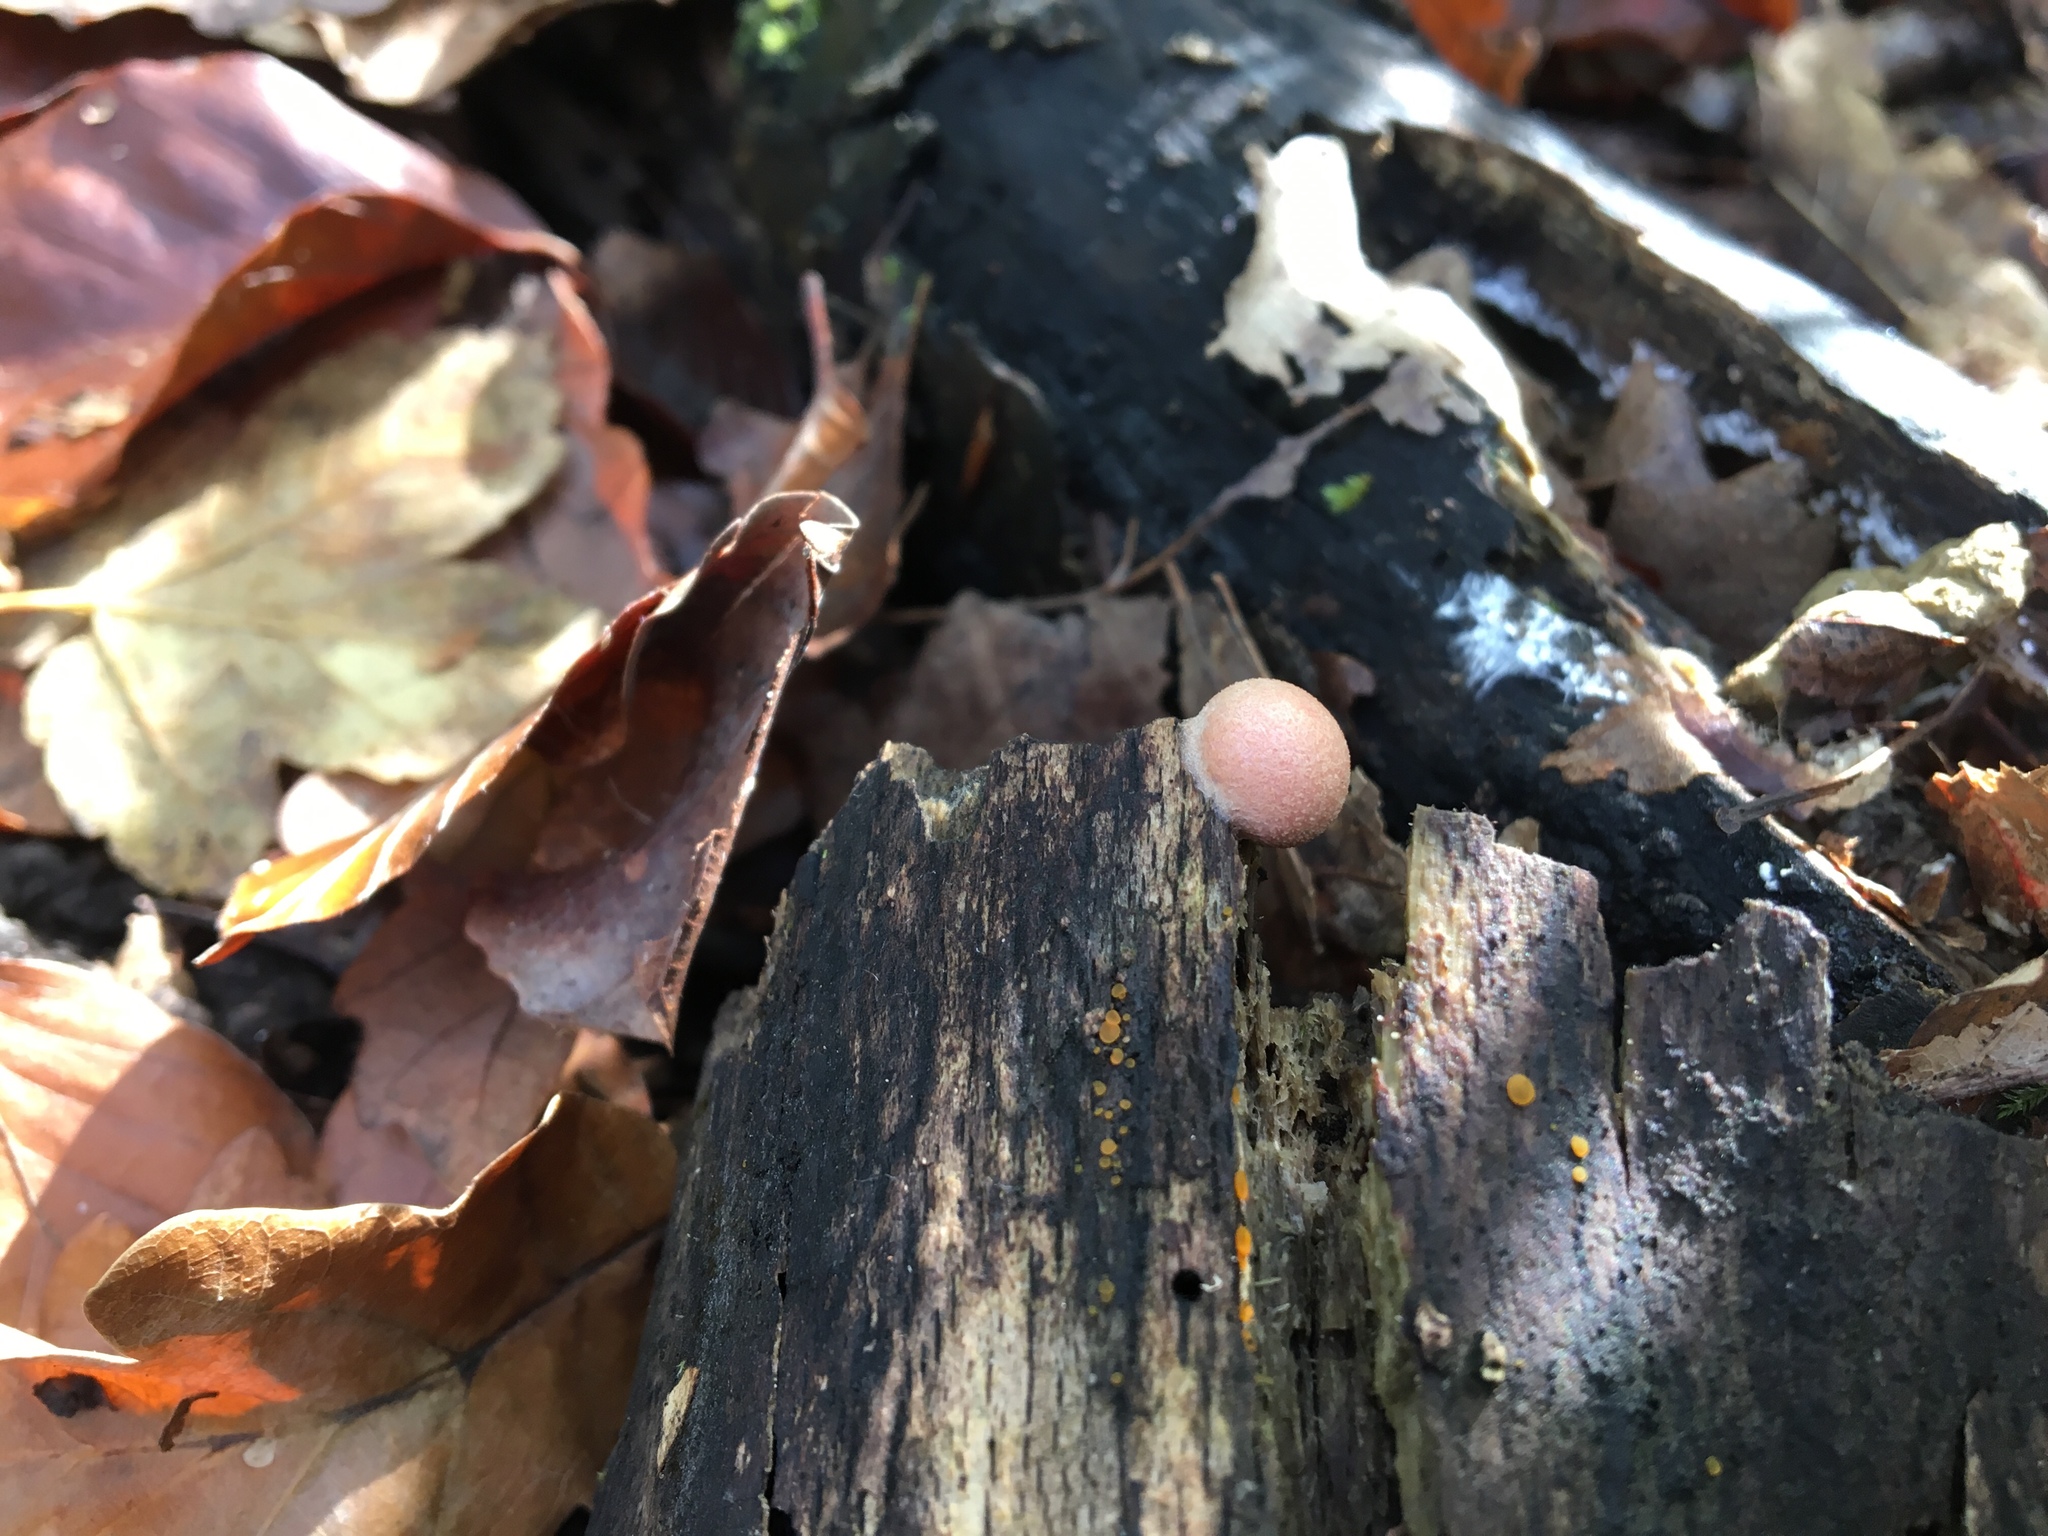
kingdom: Protozoa
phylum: Mycetozoa
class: Myxomycetes
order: Cribrariales
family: Tubiferaceae
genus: Lycogala
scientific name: Lycogala epidendrum
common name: Wolf's milk
